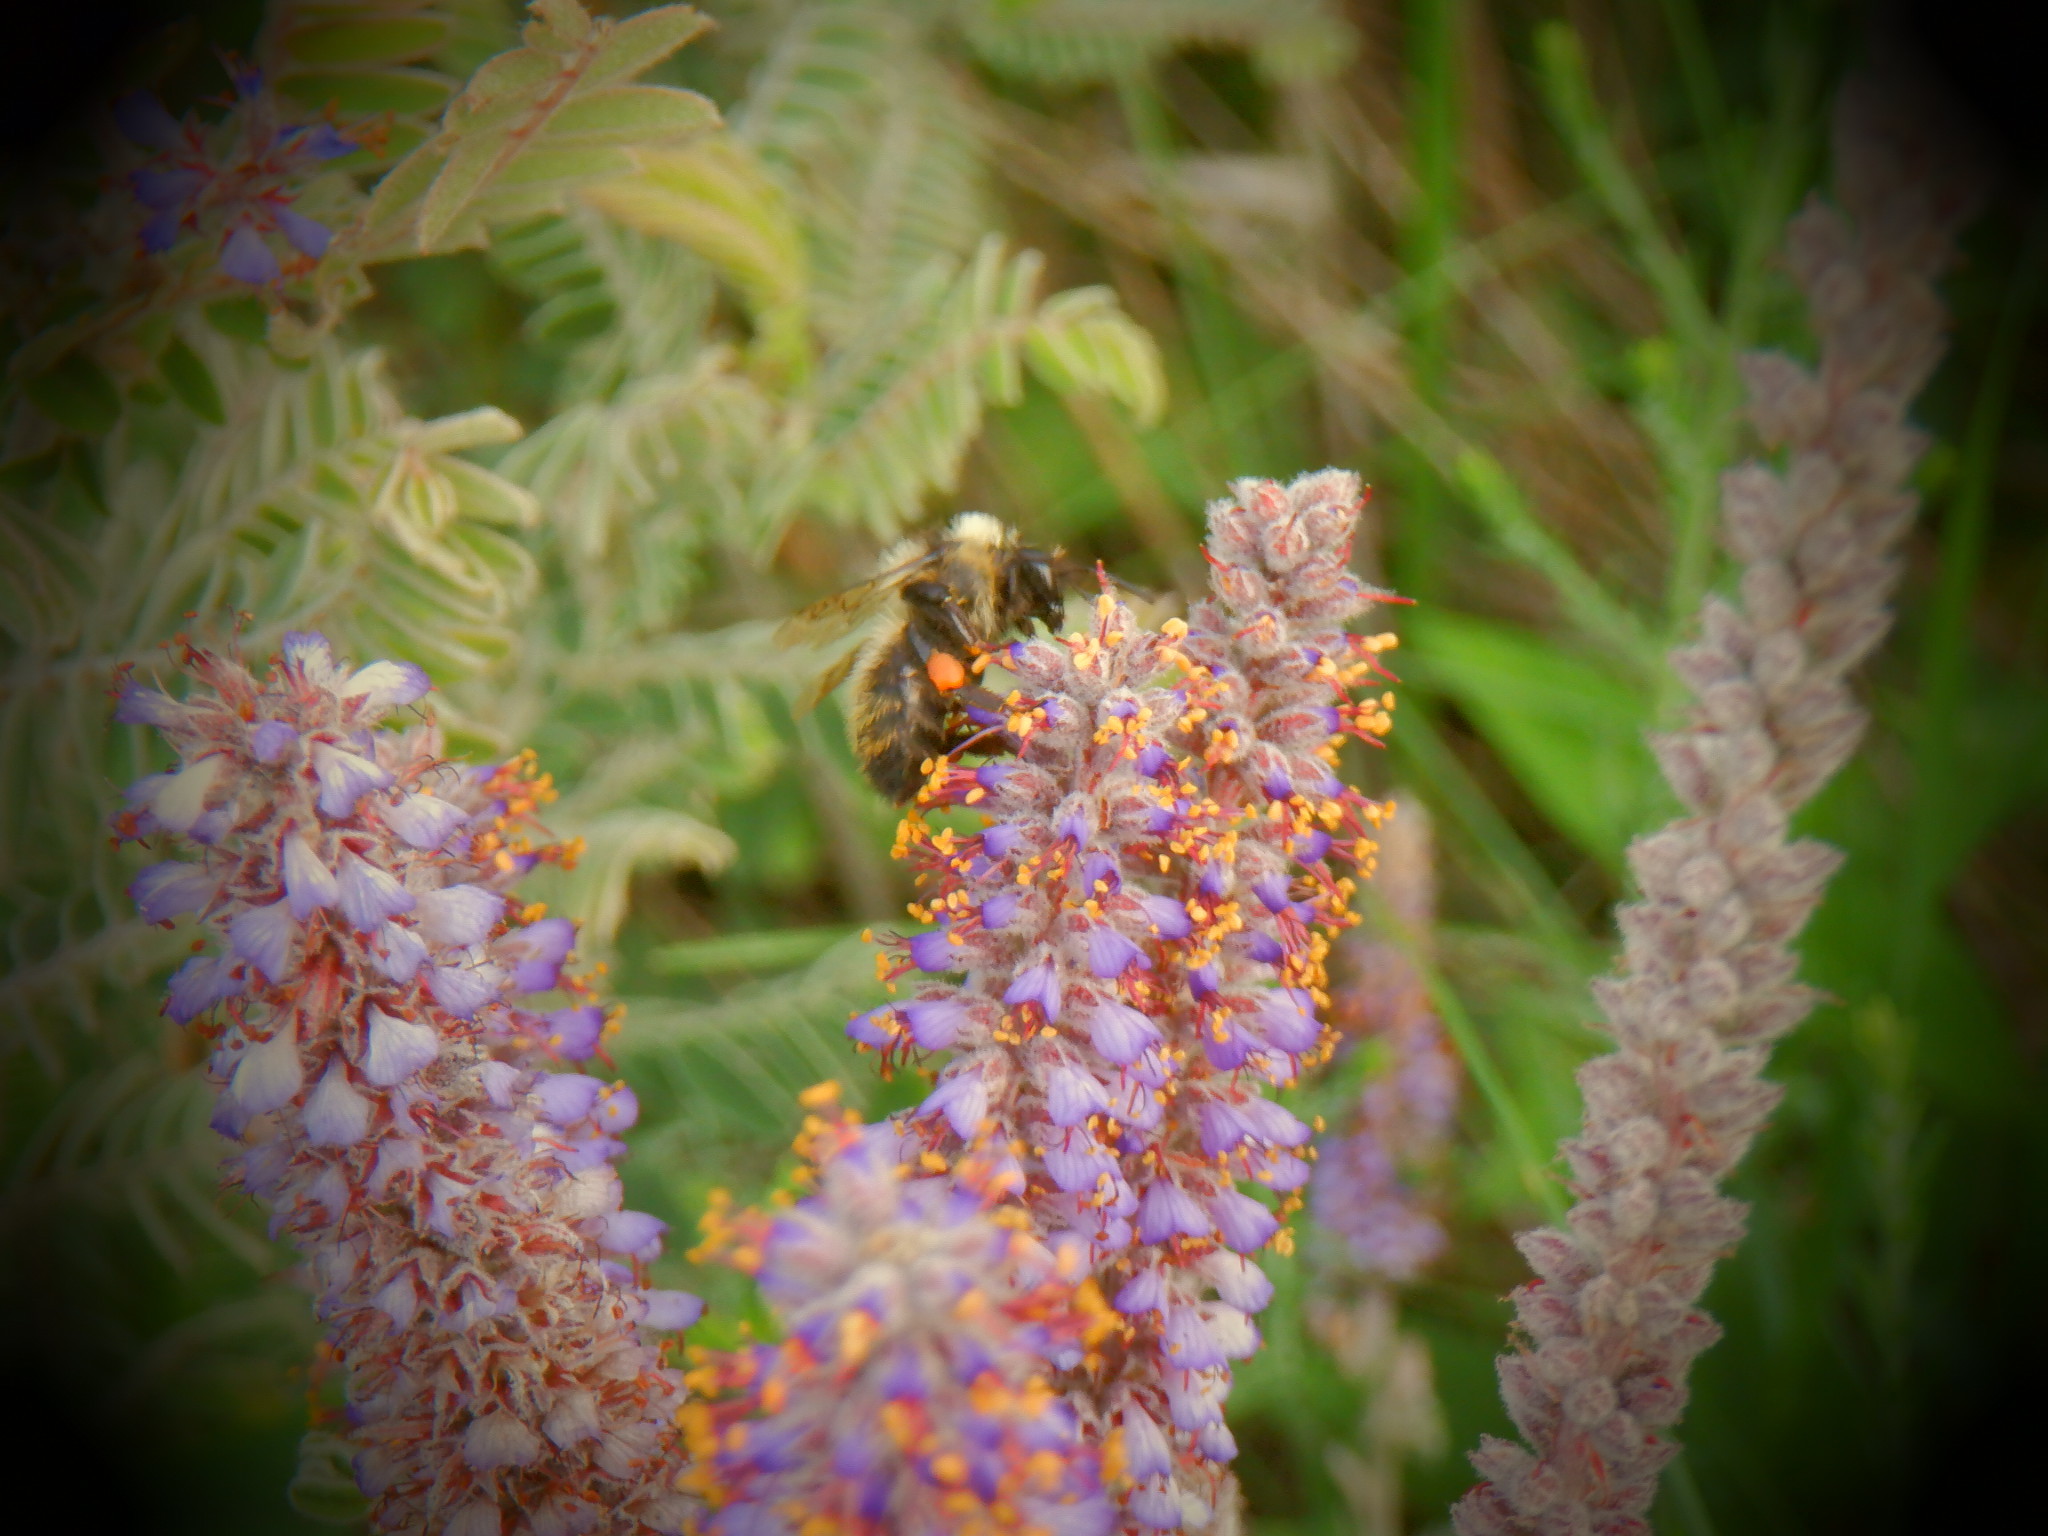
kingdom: Animalia
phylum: Arthropoda
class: Insecta
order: Hymenoptera
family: Apidae
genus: Bombus
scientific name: Bombus rufocinctus
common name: Red-belted bumble bee
